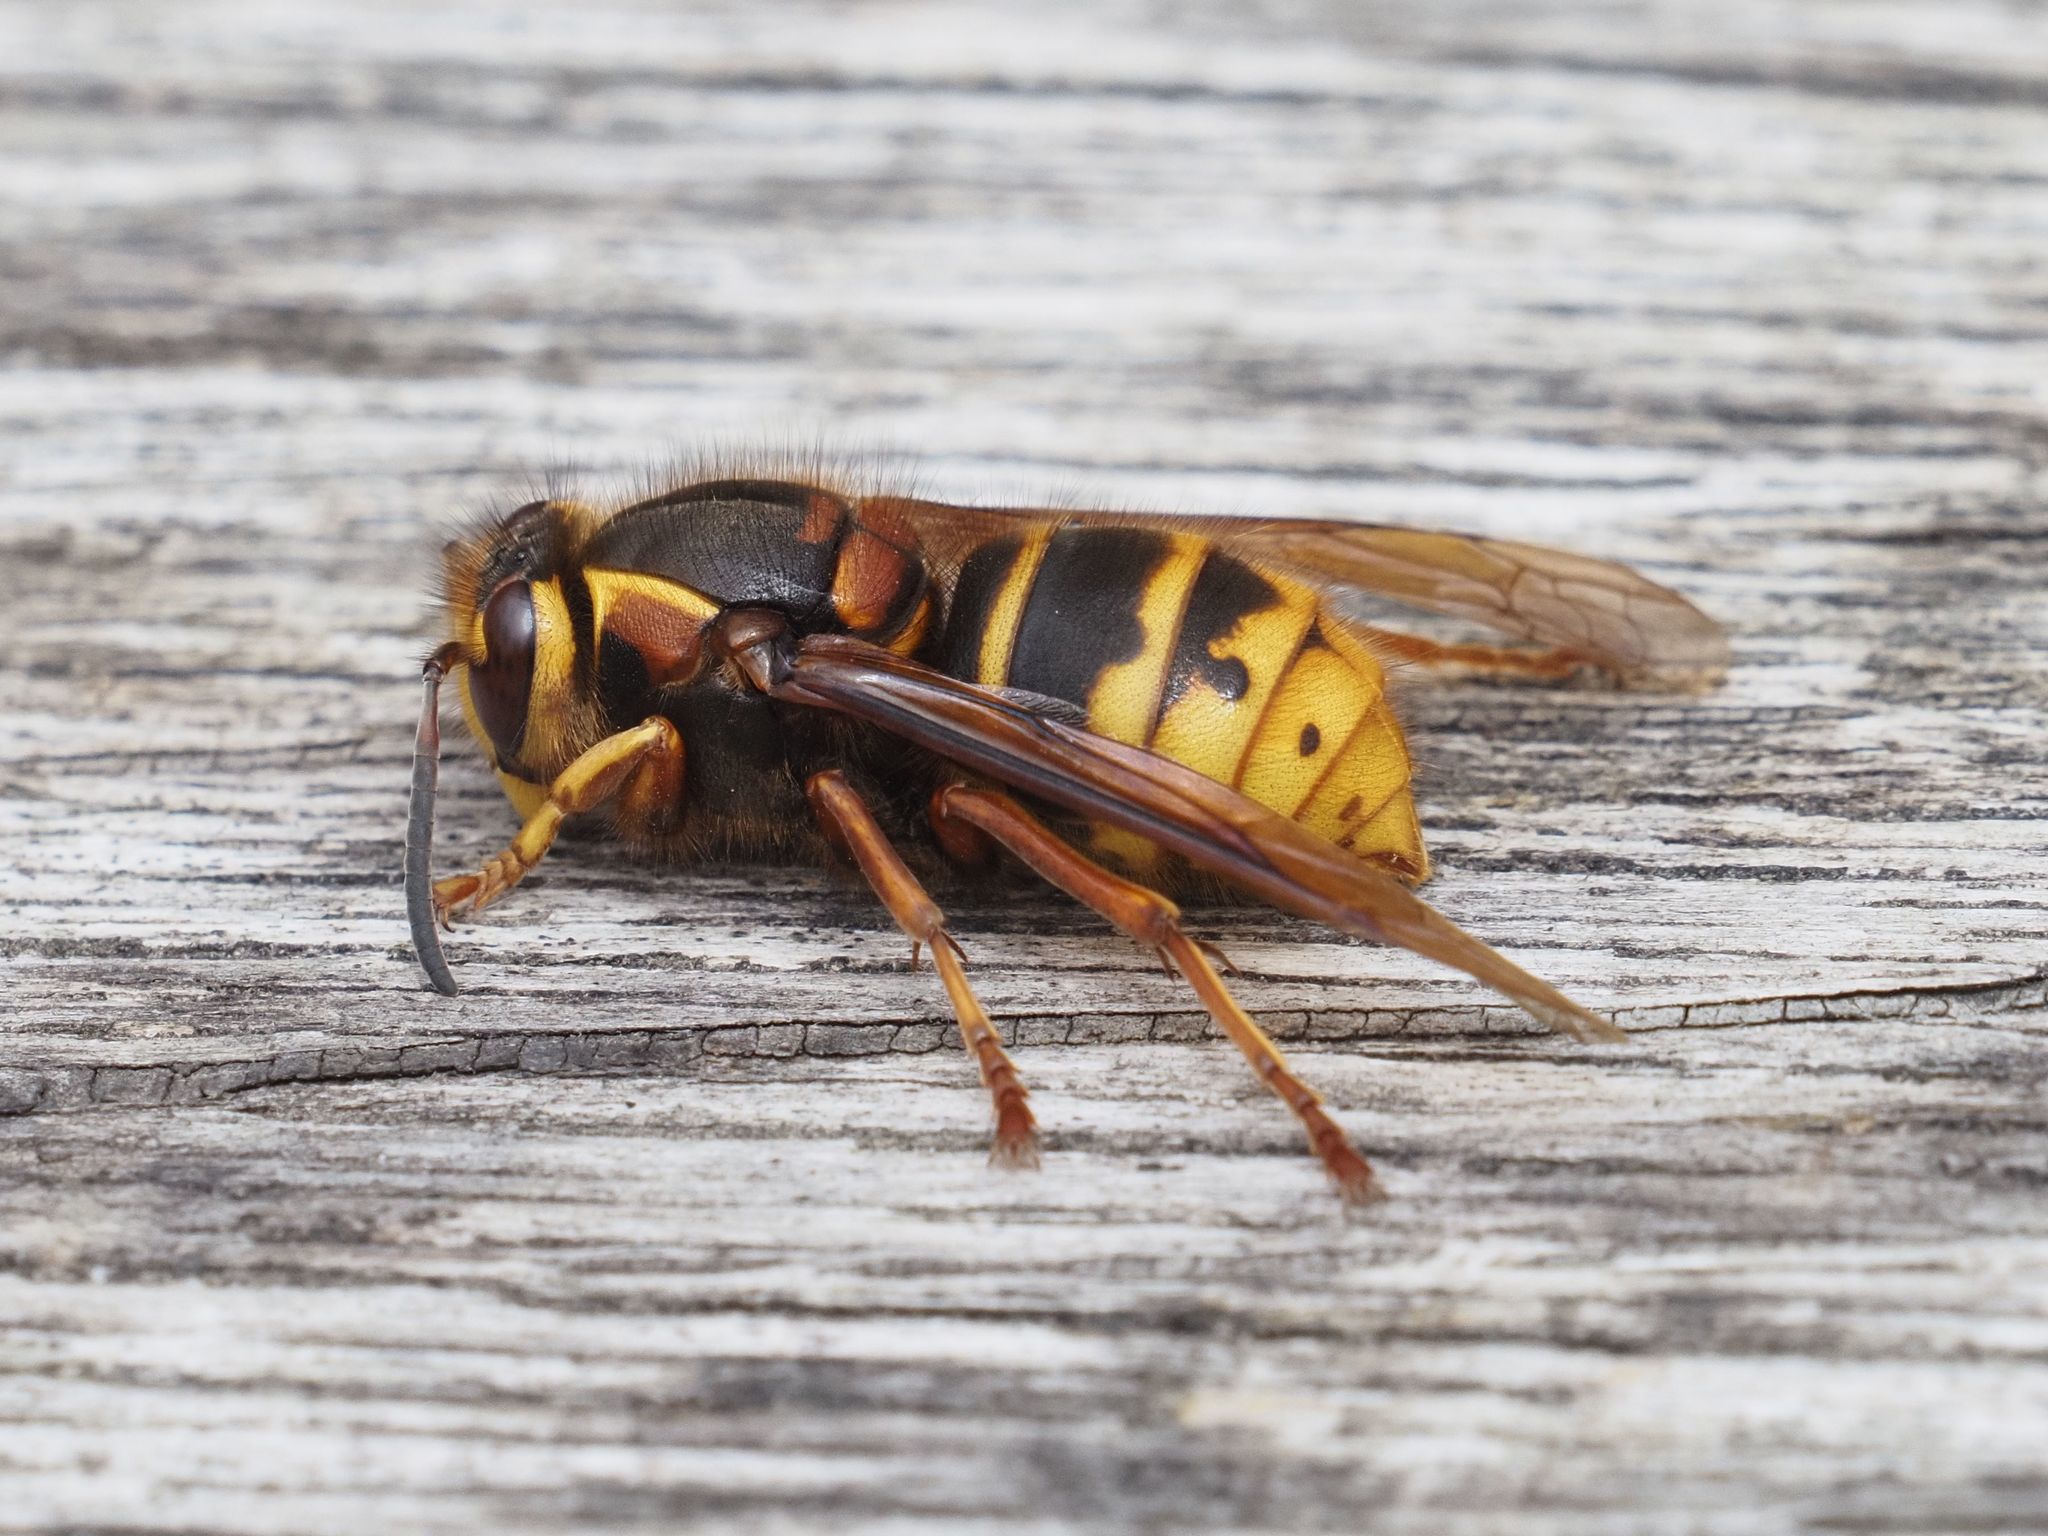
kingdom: Animalia
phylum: Arthropoda
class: Insecta
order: Hymenoptera
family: Vespidae
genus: Dolichovespula
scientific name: Dolichovespula media
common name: Median wasp
